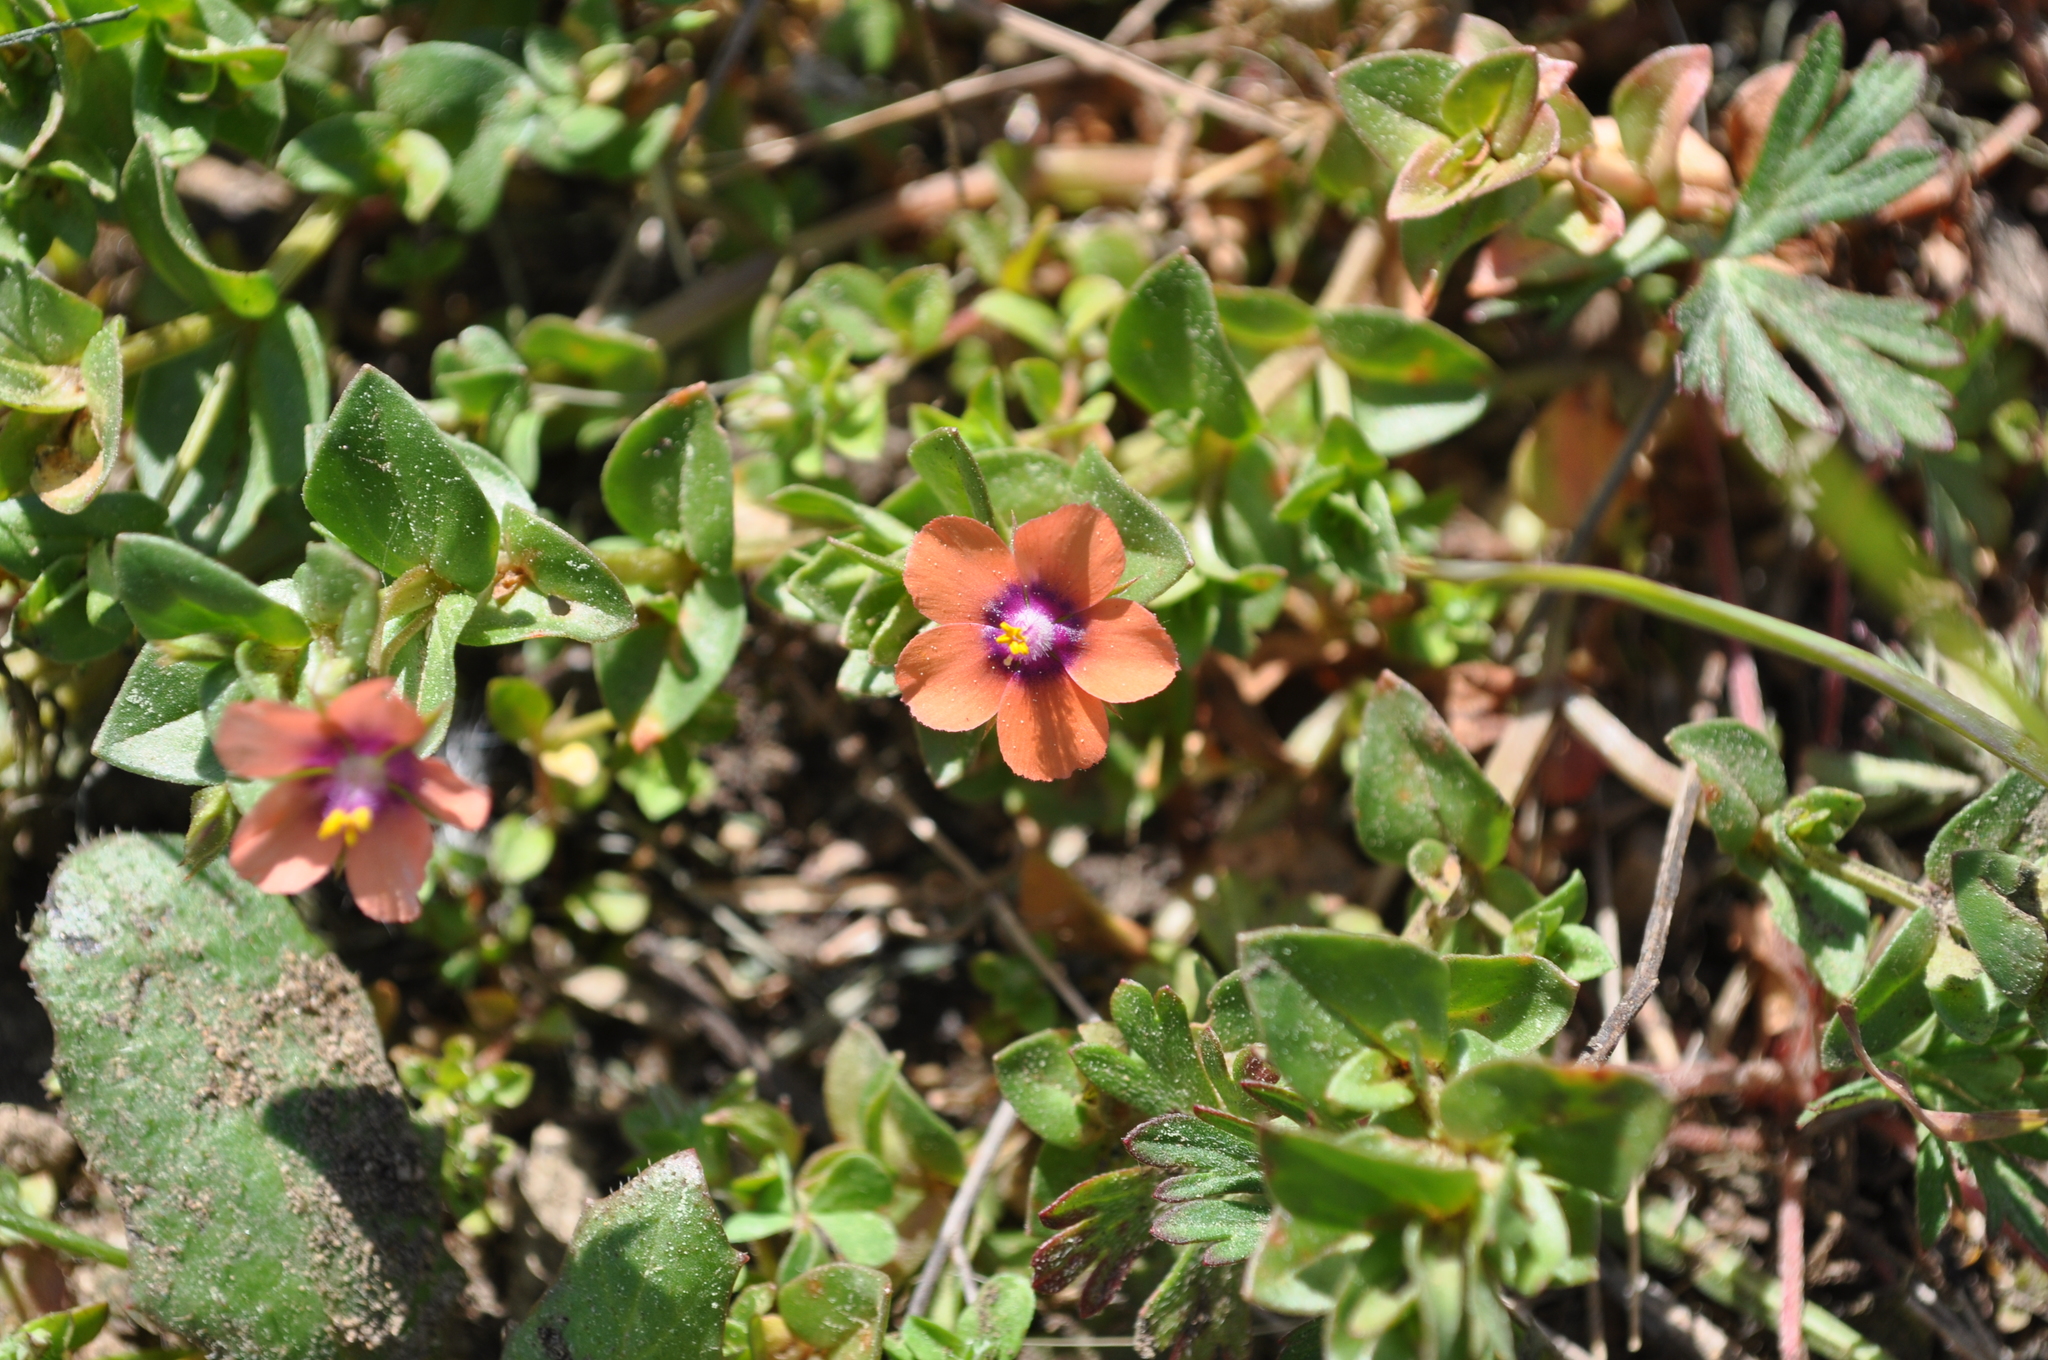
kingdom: Plantae
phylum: Tracheophyta
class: Magnoliopsida
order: Ericales
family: Primulaceae
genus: Lysimachia
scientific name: Lysimachia arvensis
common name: Scarlet pimpernel
